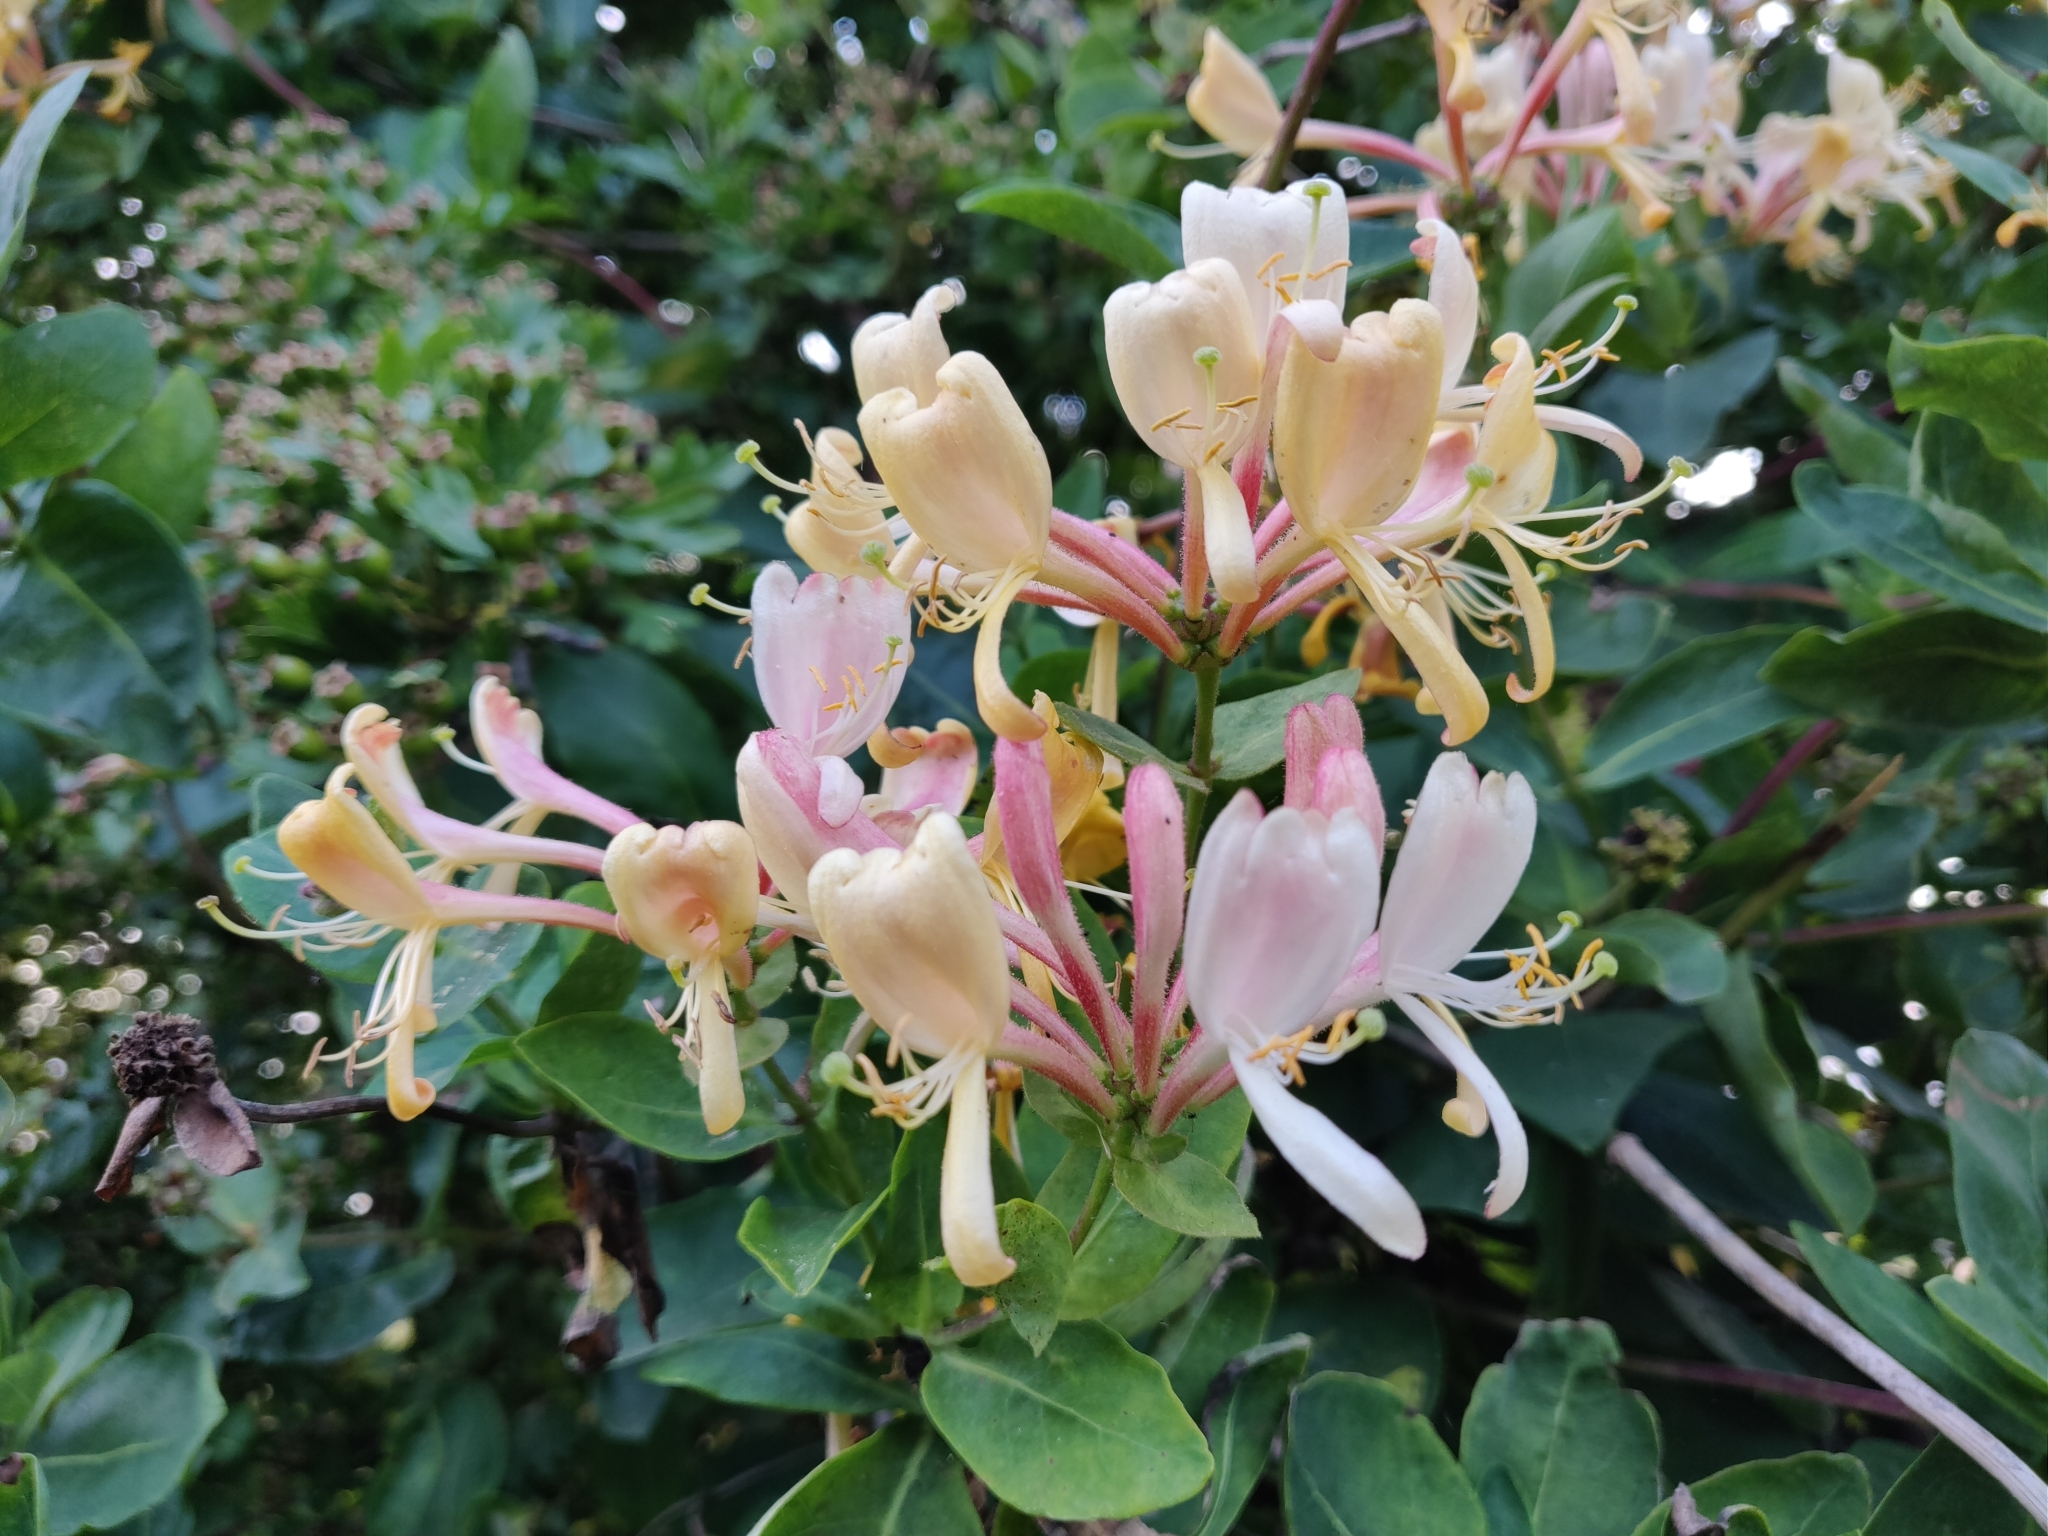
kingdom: Plantae
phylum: Tracheophyta
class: Magnoliopsida
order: Dipsacales
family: Caprifoliaceae
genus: Lonicera
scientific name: Lonicera periclymenum
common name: European honeysuckle
